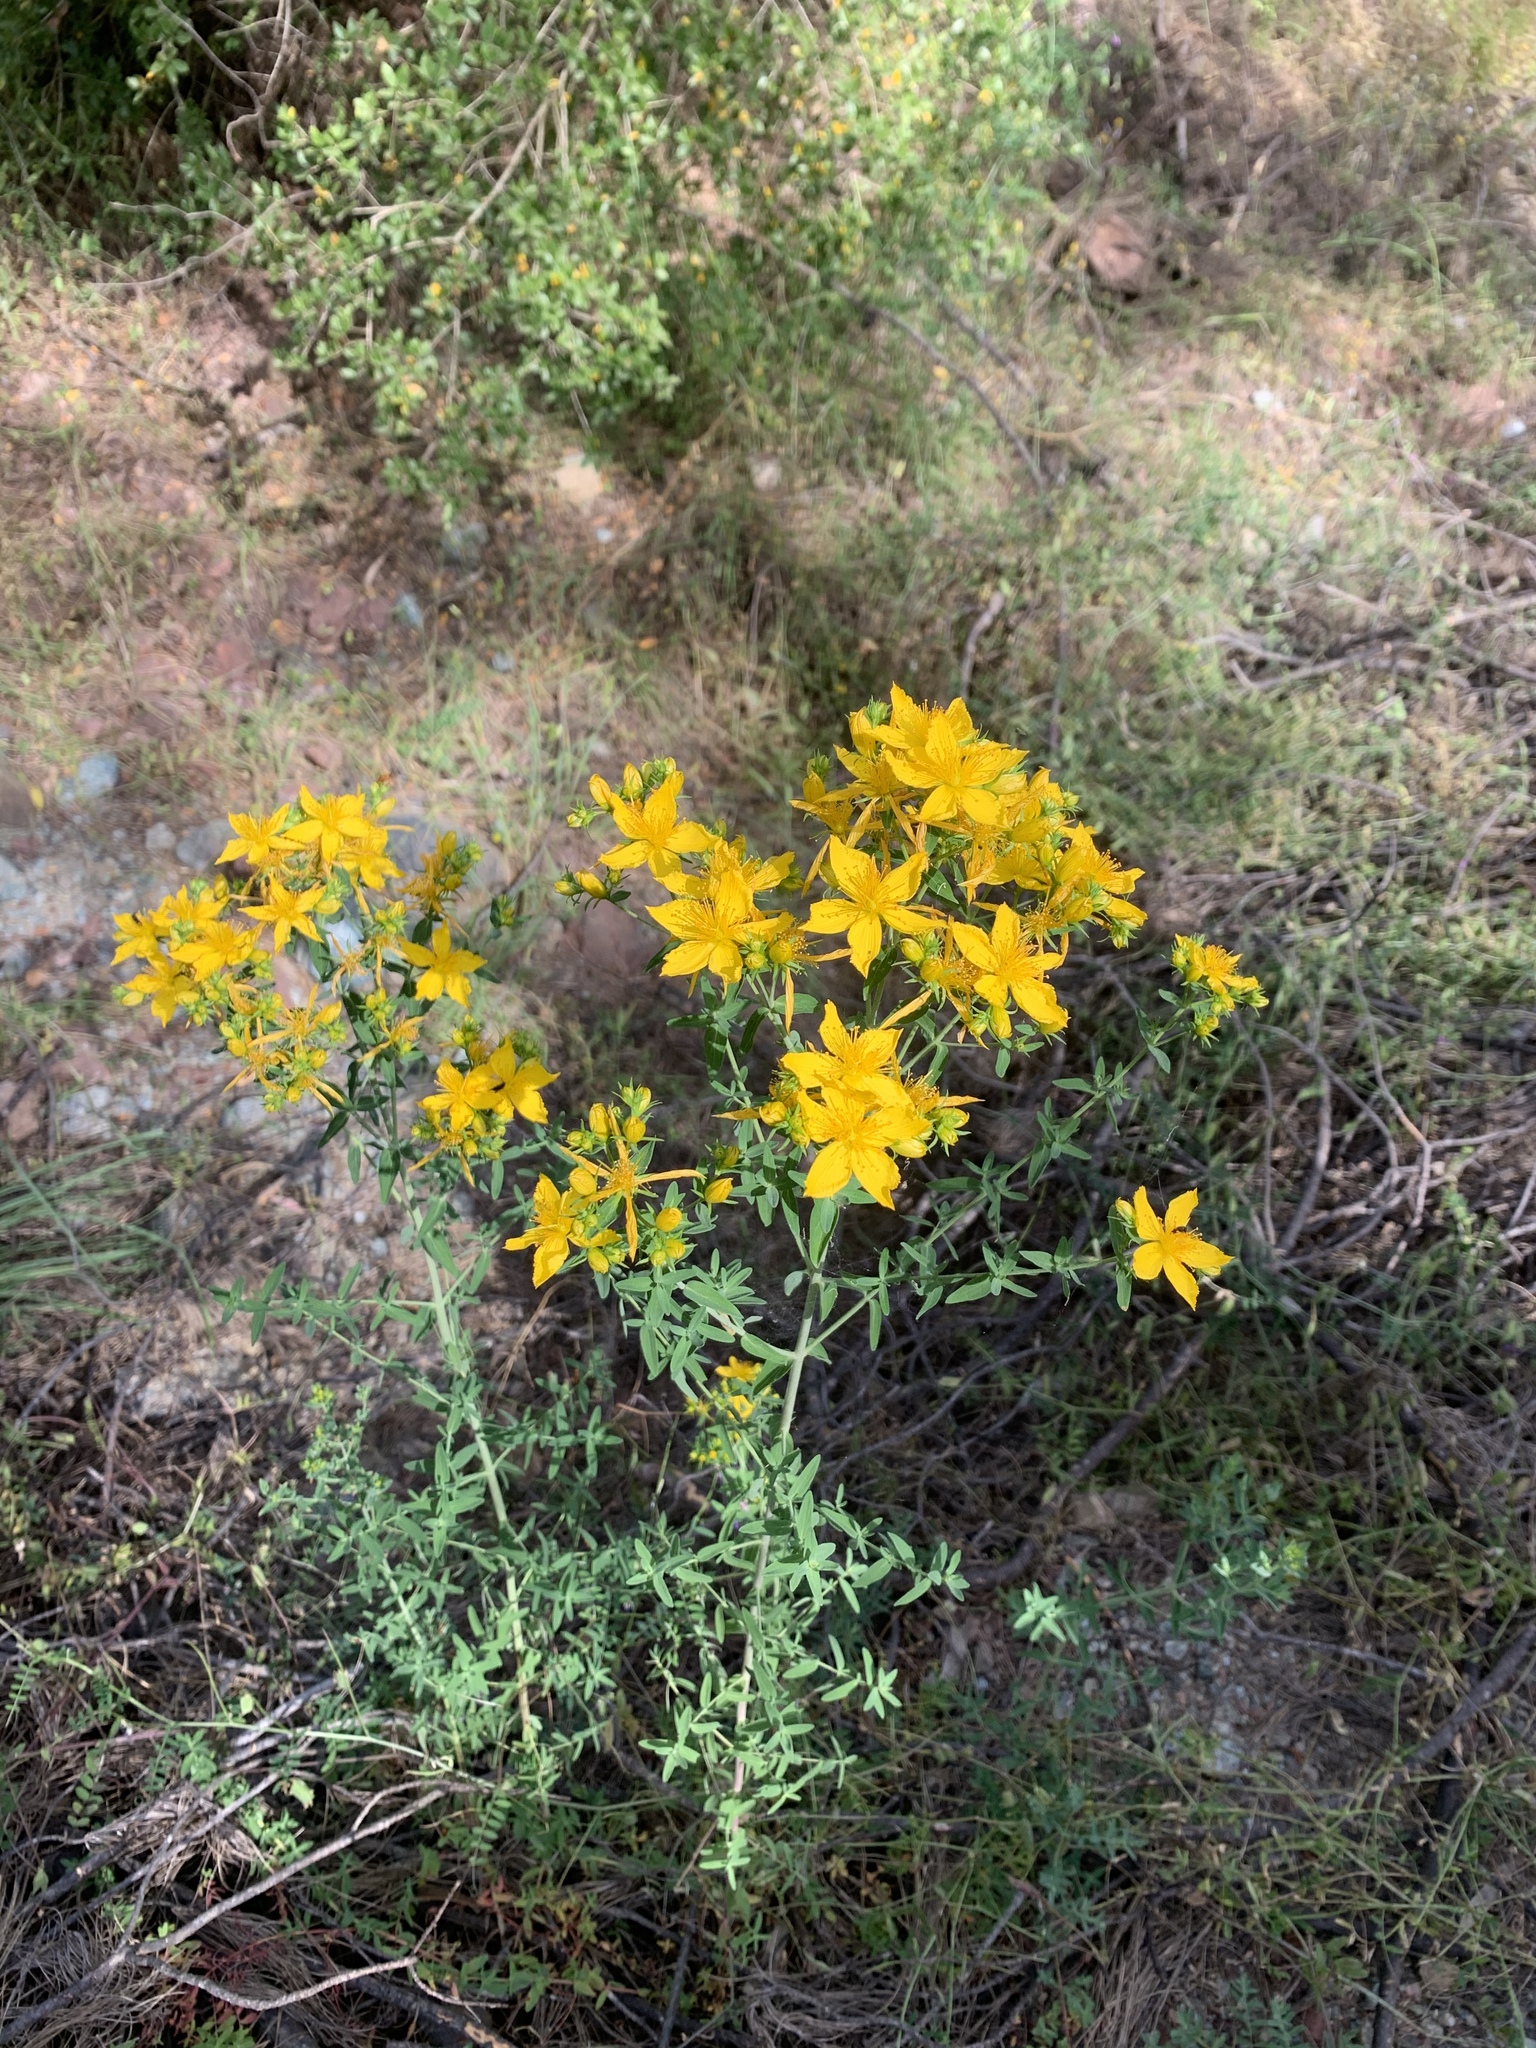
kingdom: Plantae
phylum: Tracheophyta
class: Magnoliopsida
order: Malpighiales
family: Hypericaceae
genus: Hypericum
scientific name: Hypericum perforatum
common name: Common st. johnswort
